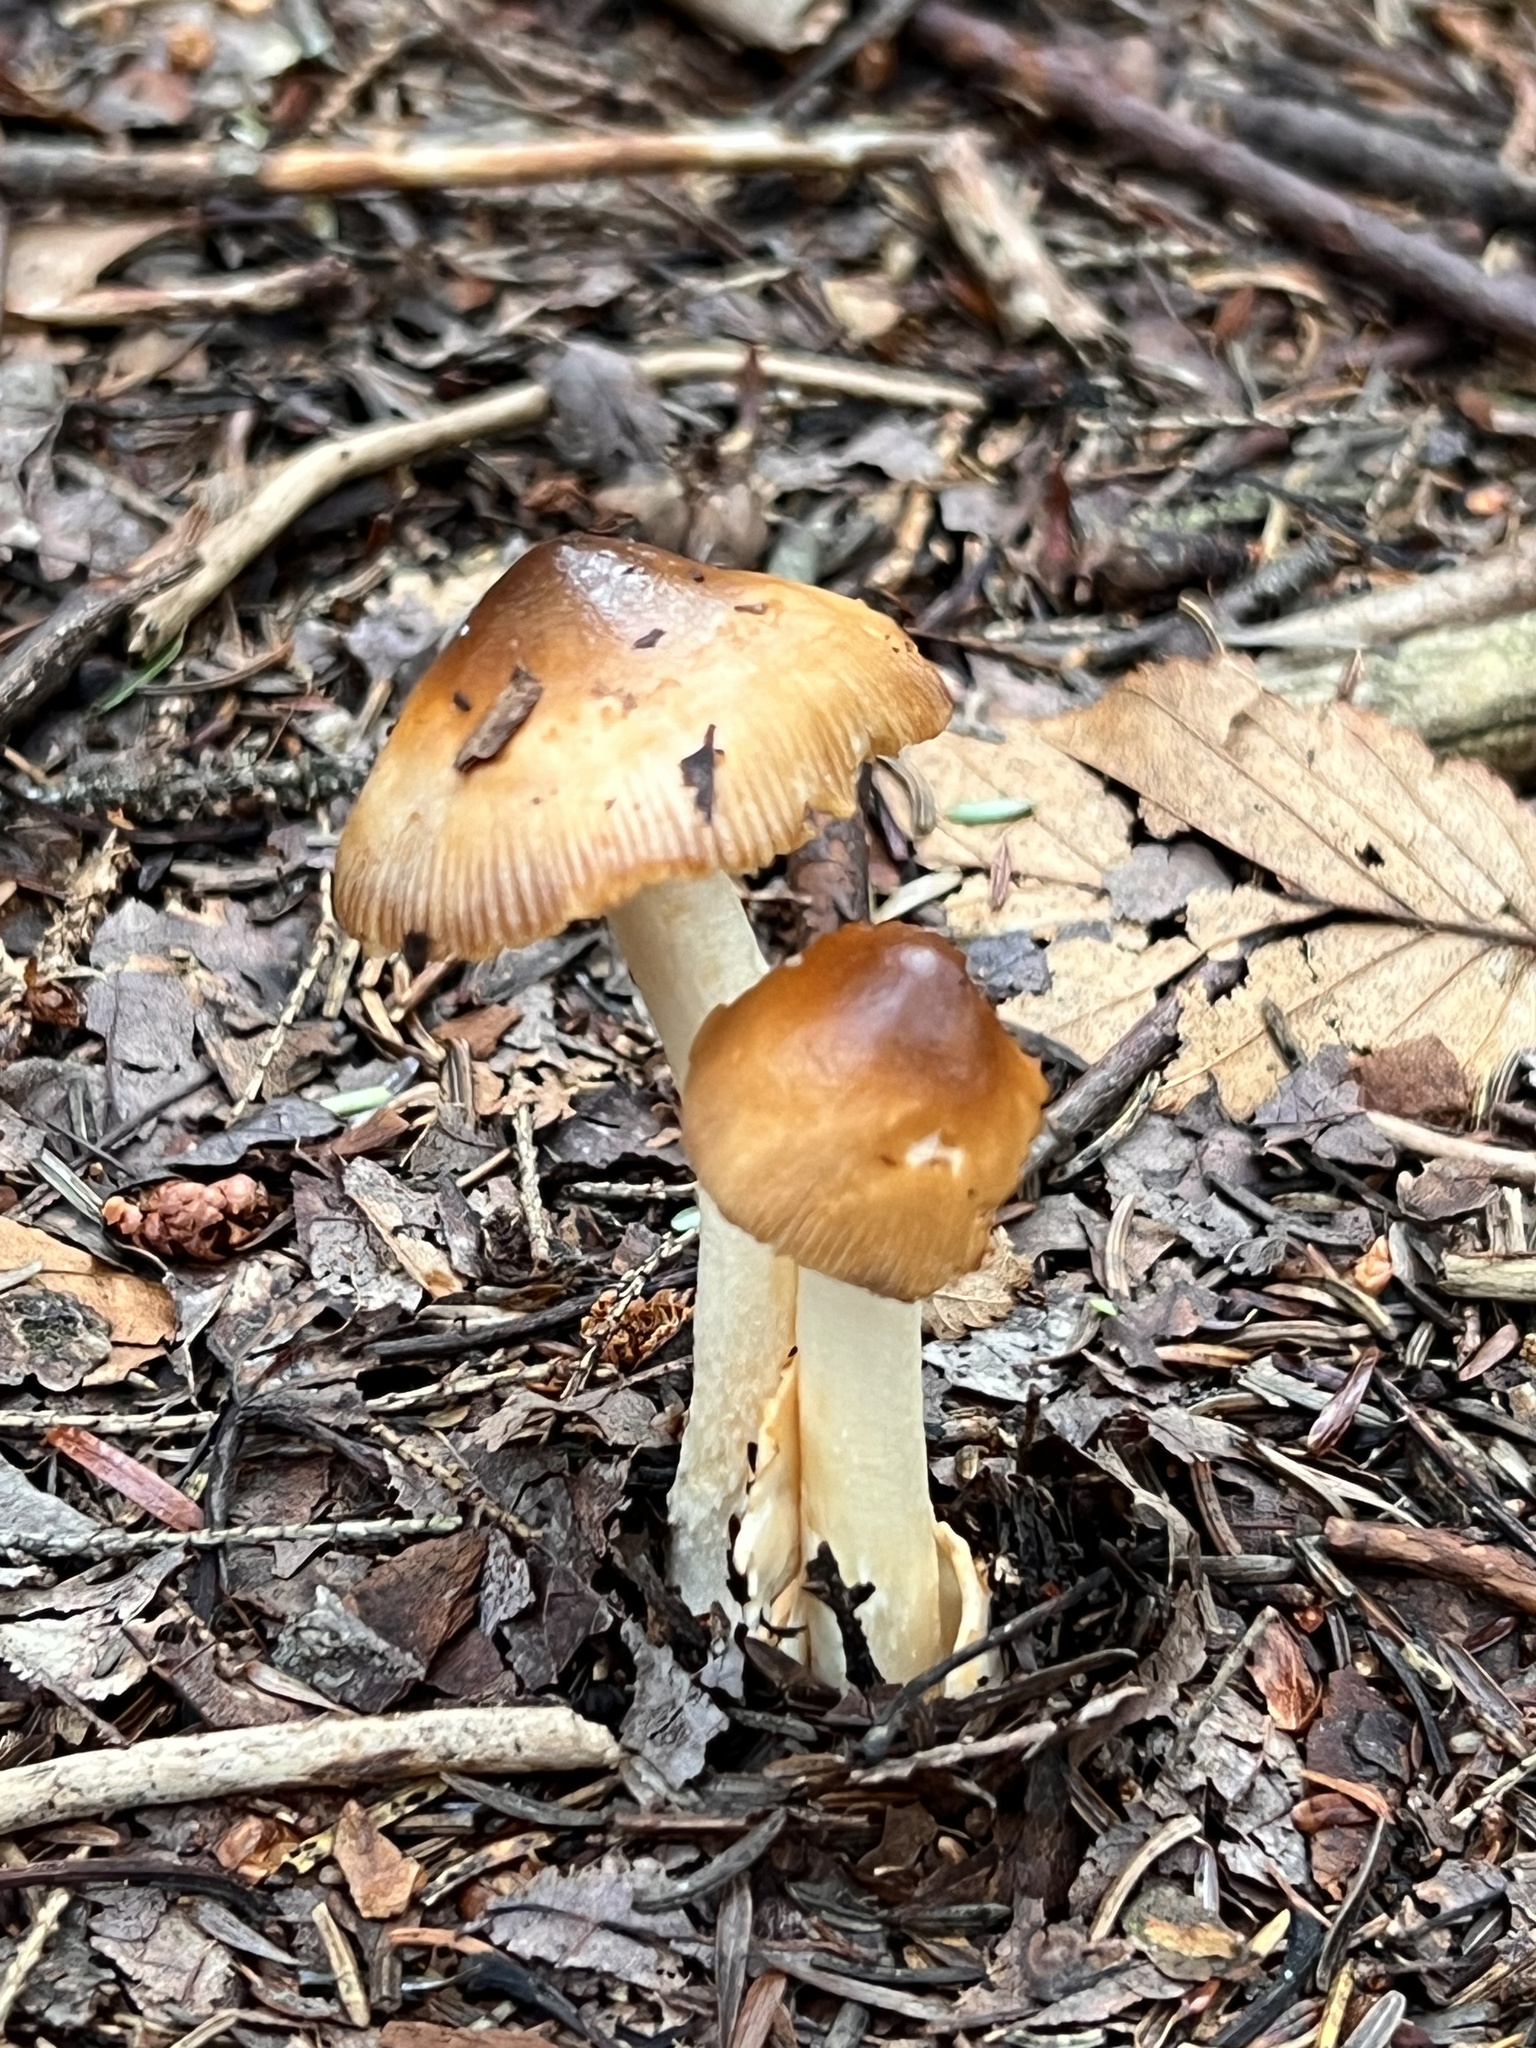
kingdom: Fungi
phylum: Basidiomycota
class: Agaricomycetes
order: Agaricales
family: Amanitaceae
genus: Amanita
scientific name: Amanita fulva
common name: Tawny grisette
